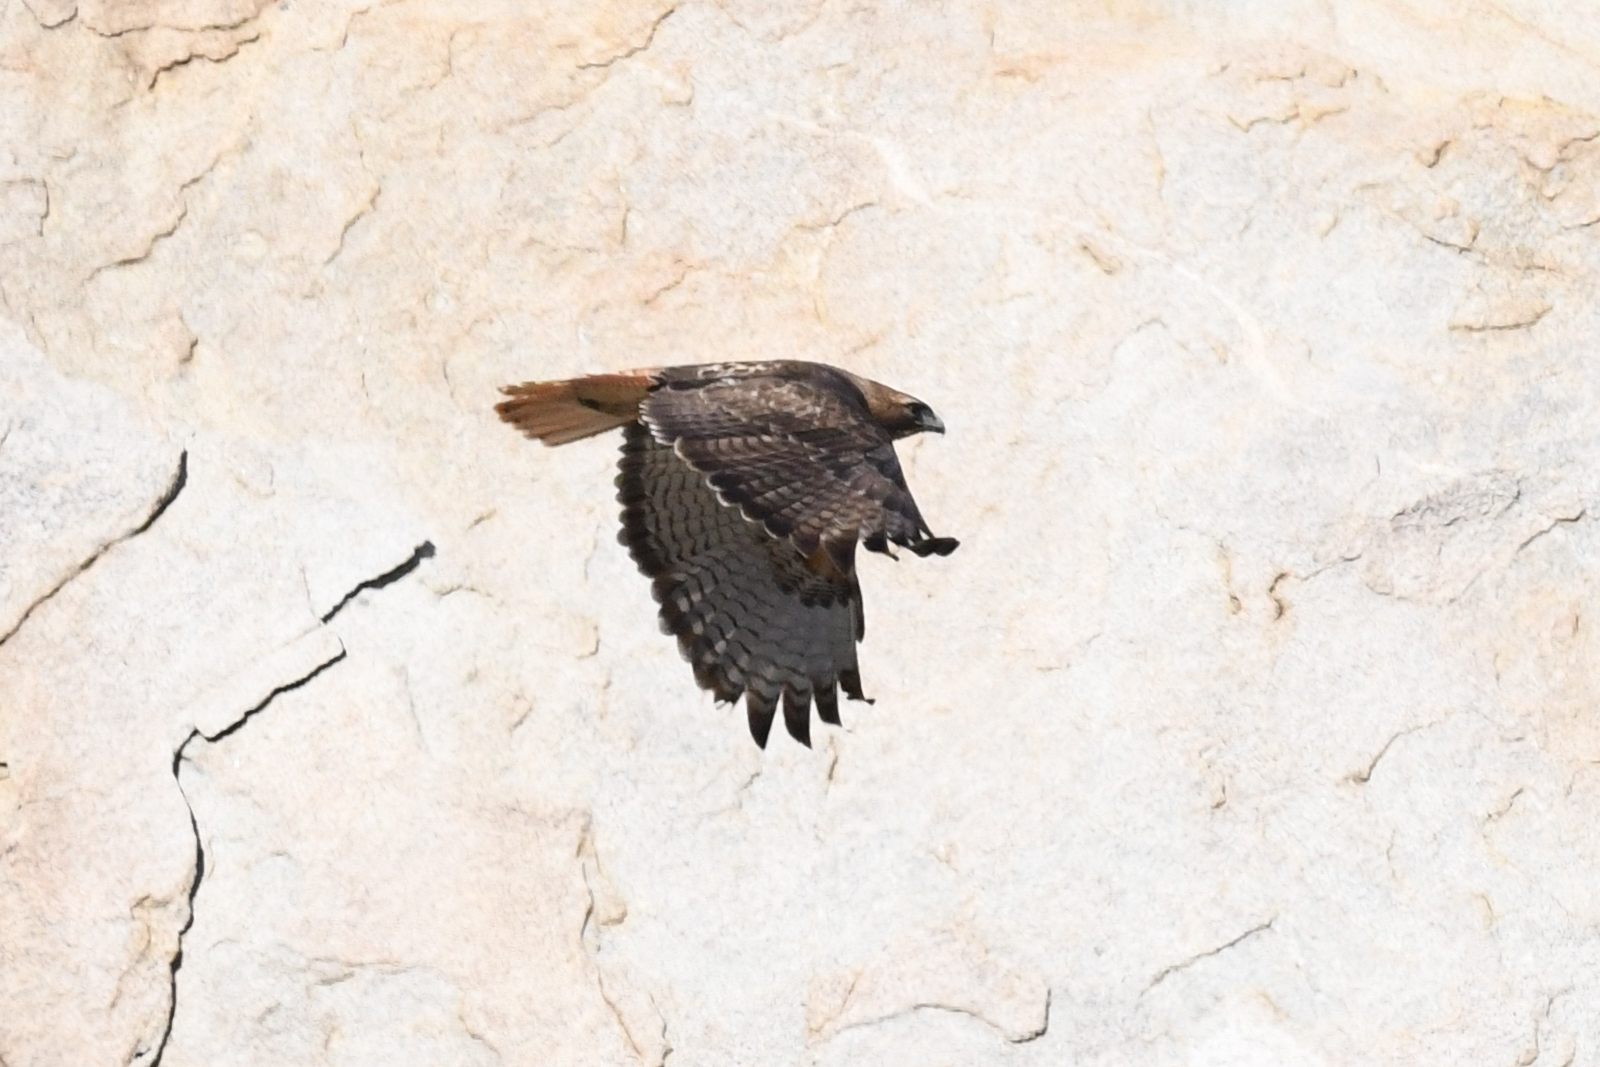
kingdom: Animalia
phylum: Chordata
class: Aves
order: Accipitriformes
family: Accipitridae
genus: Buteo
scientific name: Buteo jamaicensis
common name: Red-tailed hawk
